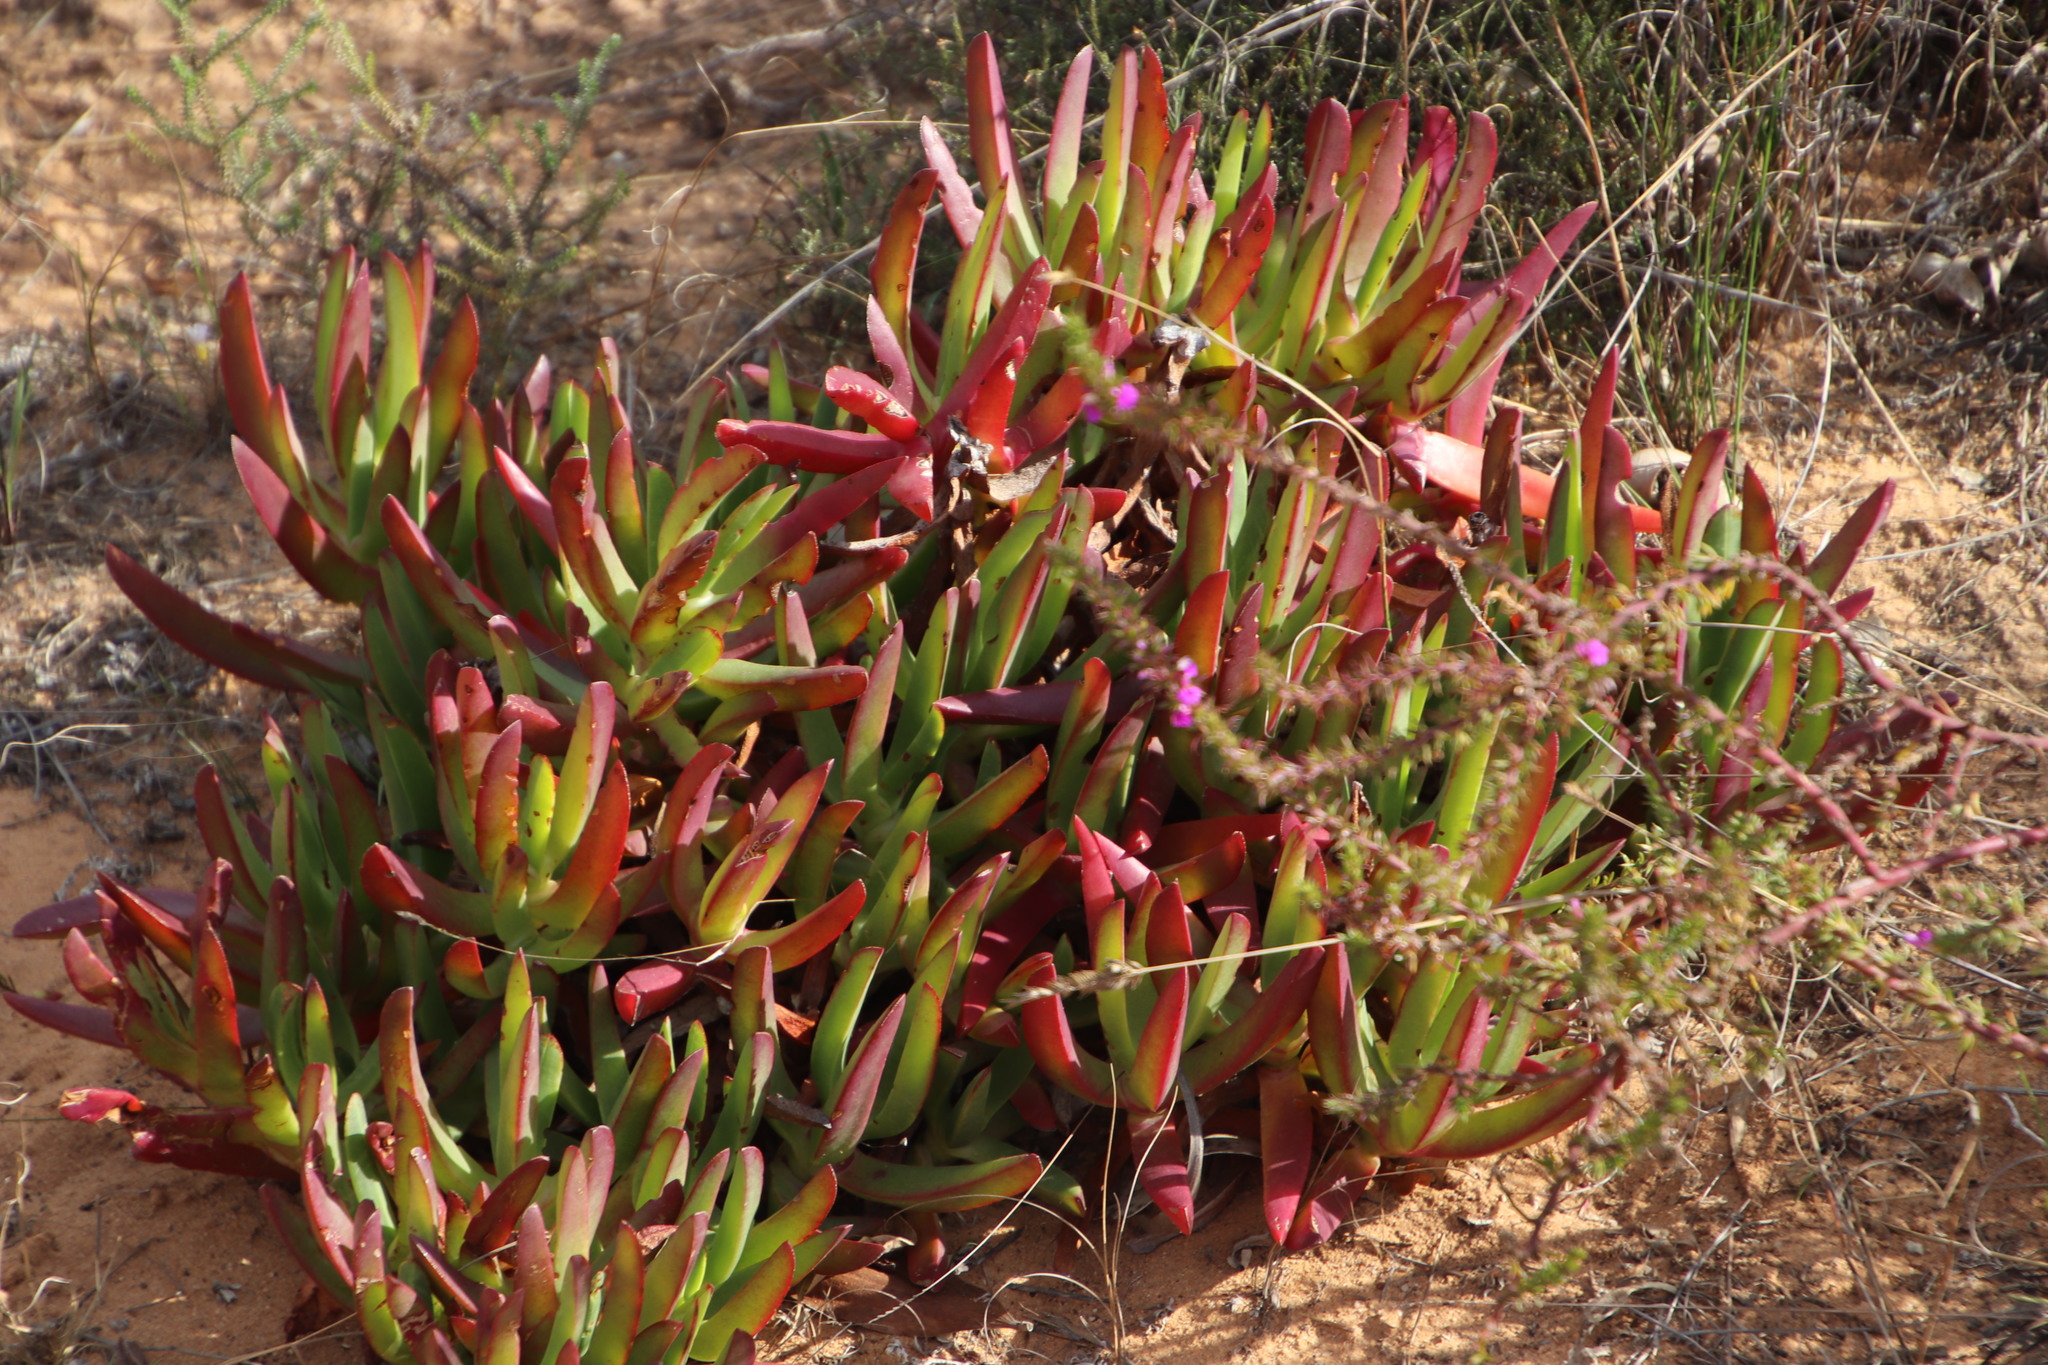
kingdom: Plantae
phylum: Tracheophyta
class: Magnoliopsida
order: Caryophyllales
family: Aizoaceae
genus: Carpobrotus
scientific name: Carpobrotus edulis
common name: Hottentot-fig
